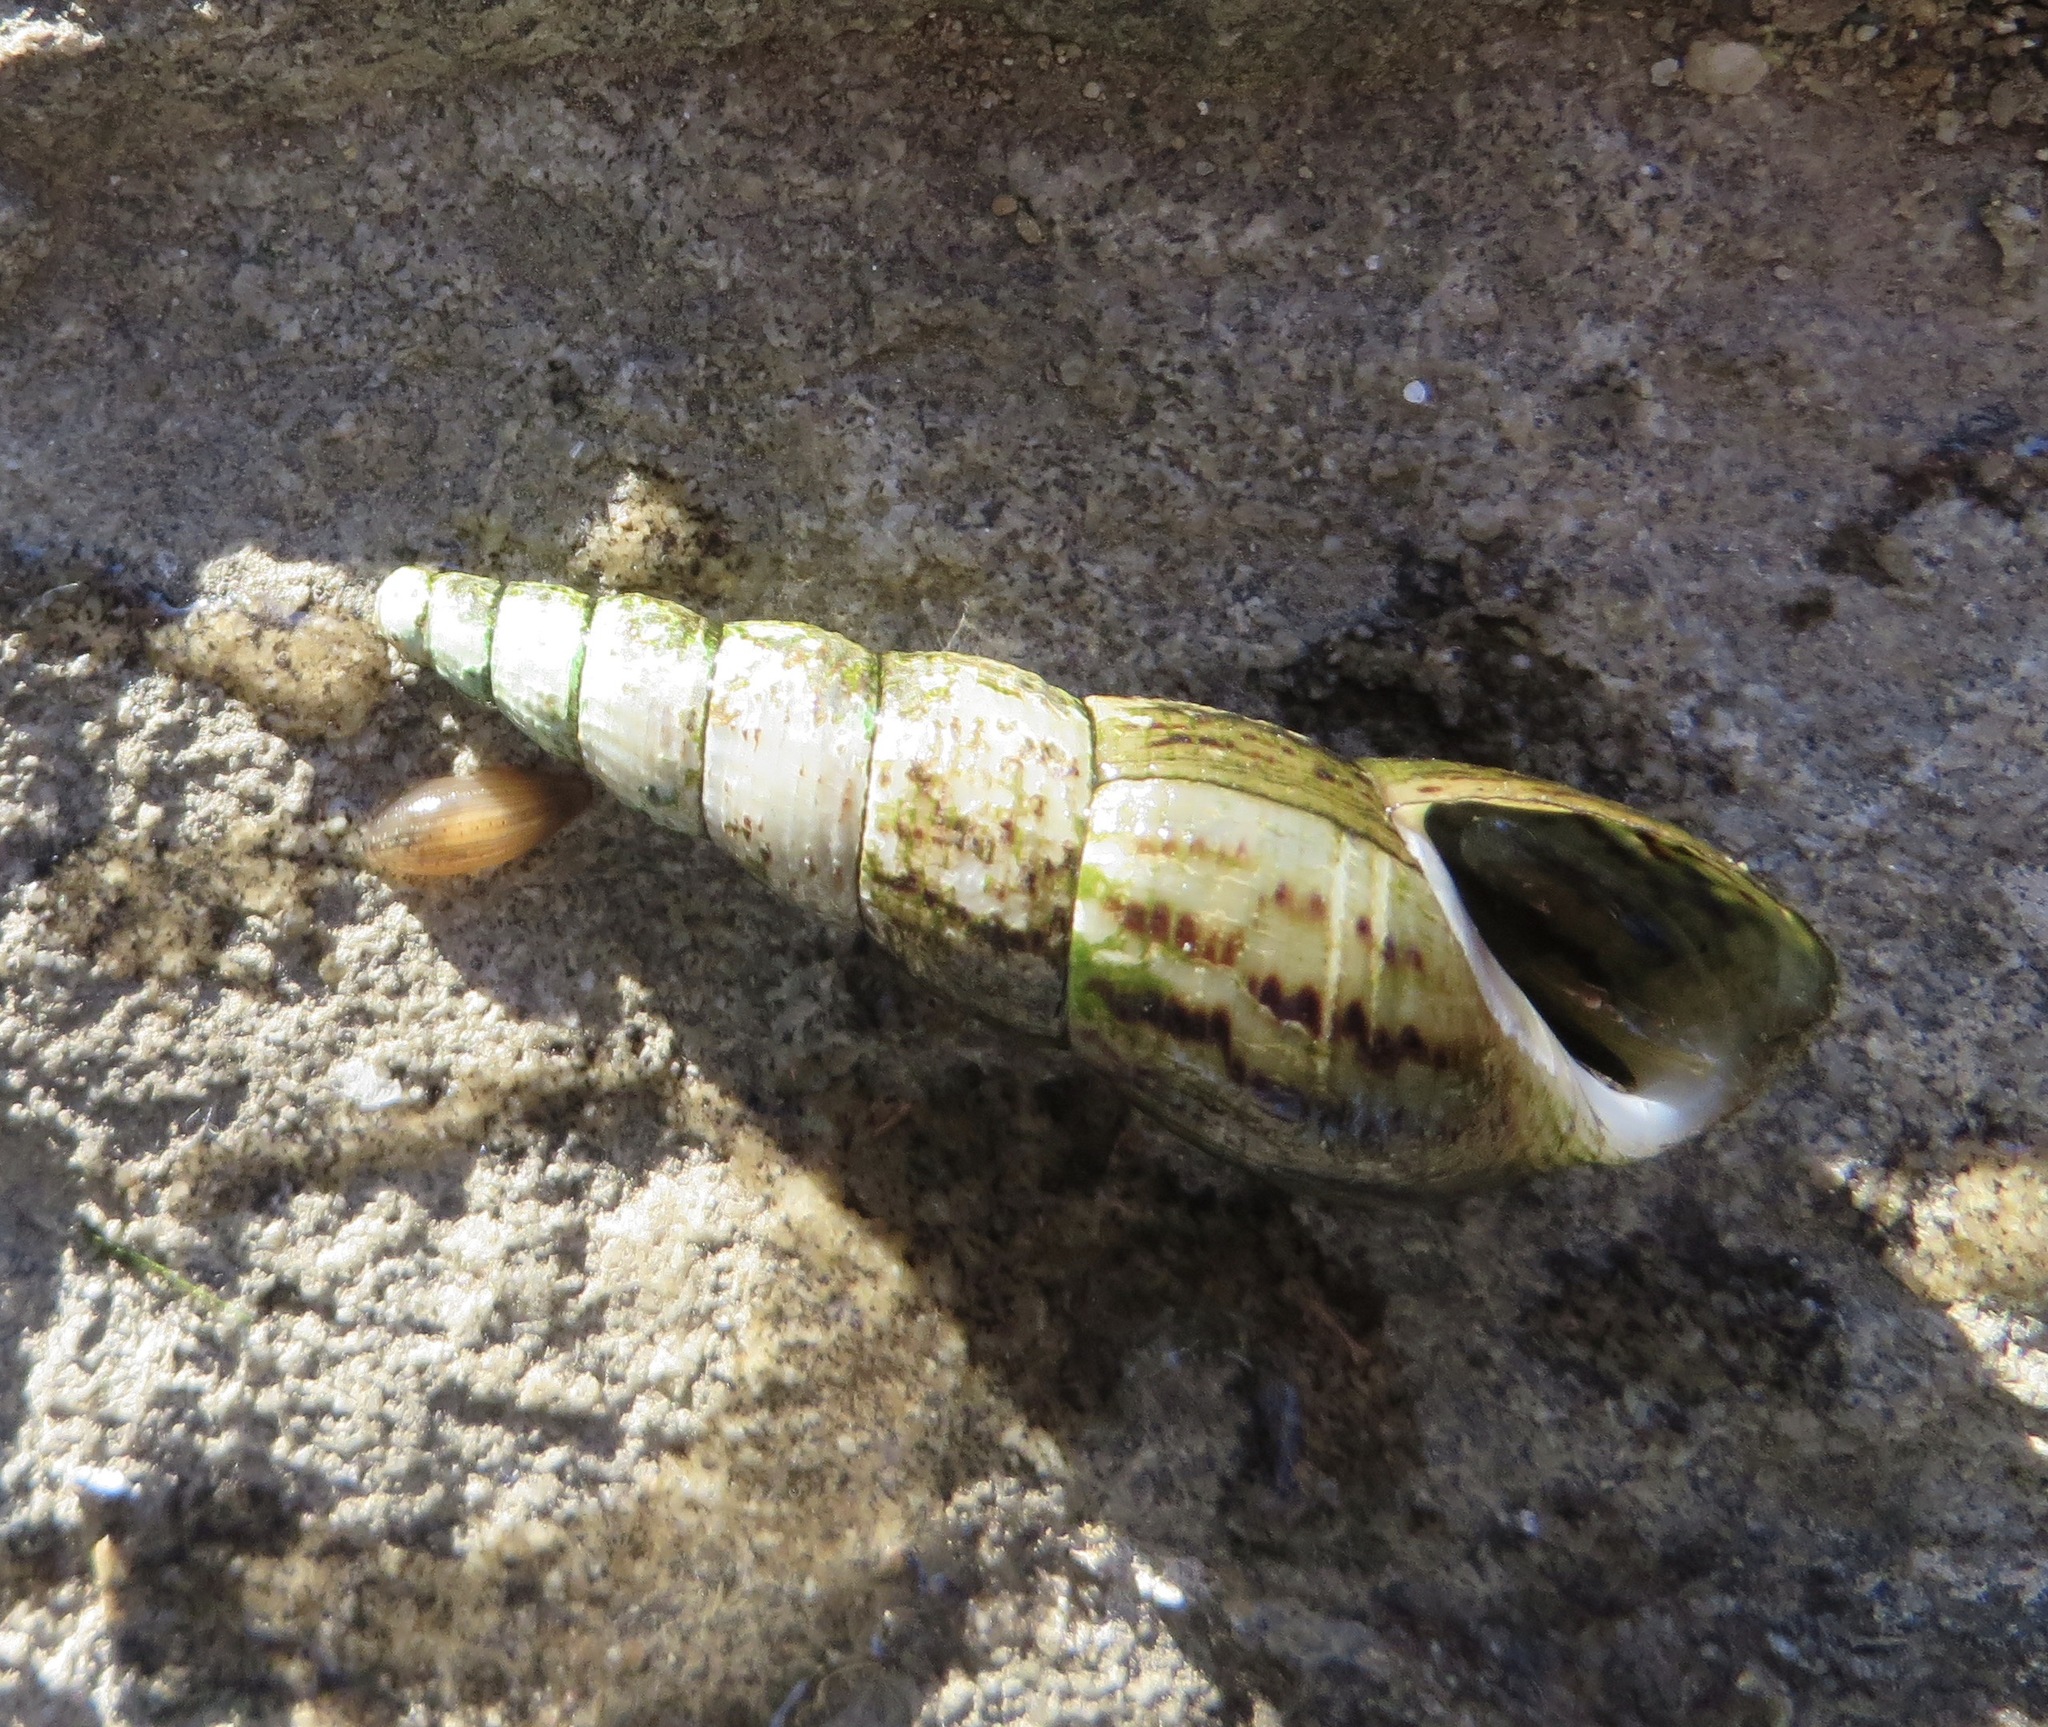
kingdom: Animalia
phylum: Mollusca
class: Gastropoda
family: Thiaridae
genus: Melanoides
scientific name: Melanoides tuberculata
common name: Red-rim melania
